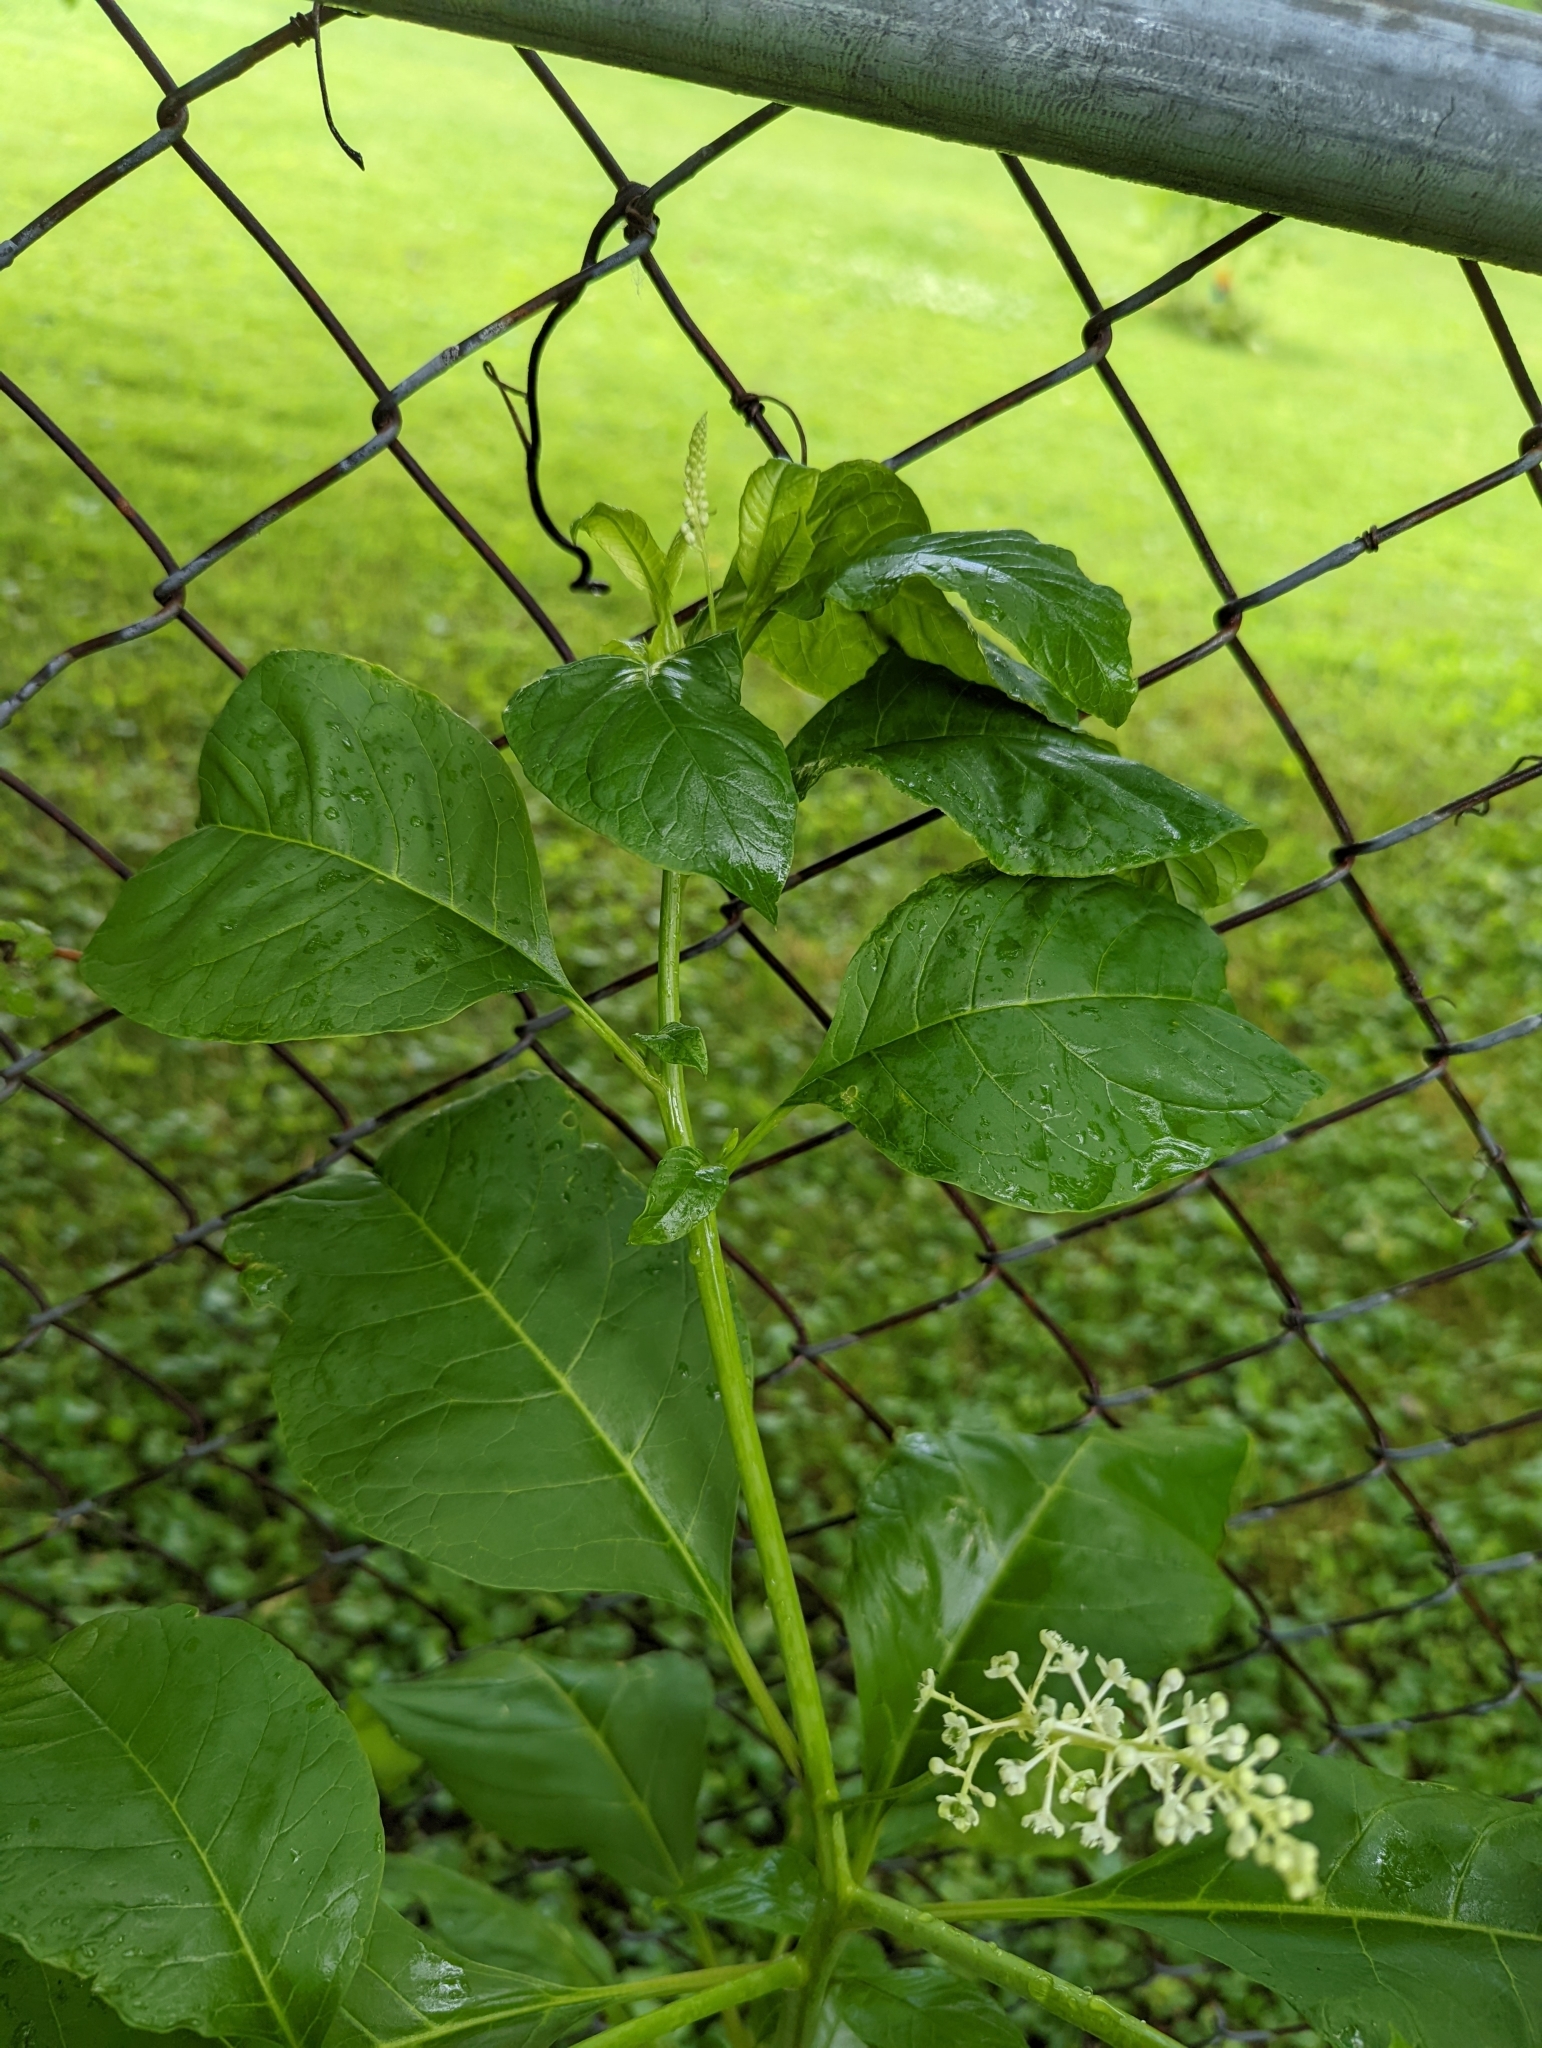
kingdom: Plantae
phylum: Tracheophyta
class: Magnoliopsida
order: Caryophyllales
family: Phytolaccaceae
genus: Phytolacca
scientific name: Phytolacca americana
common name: American pokeweed
